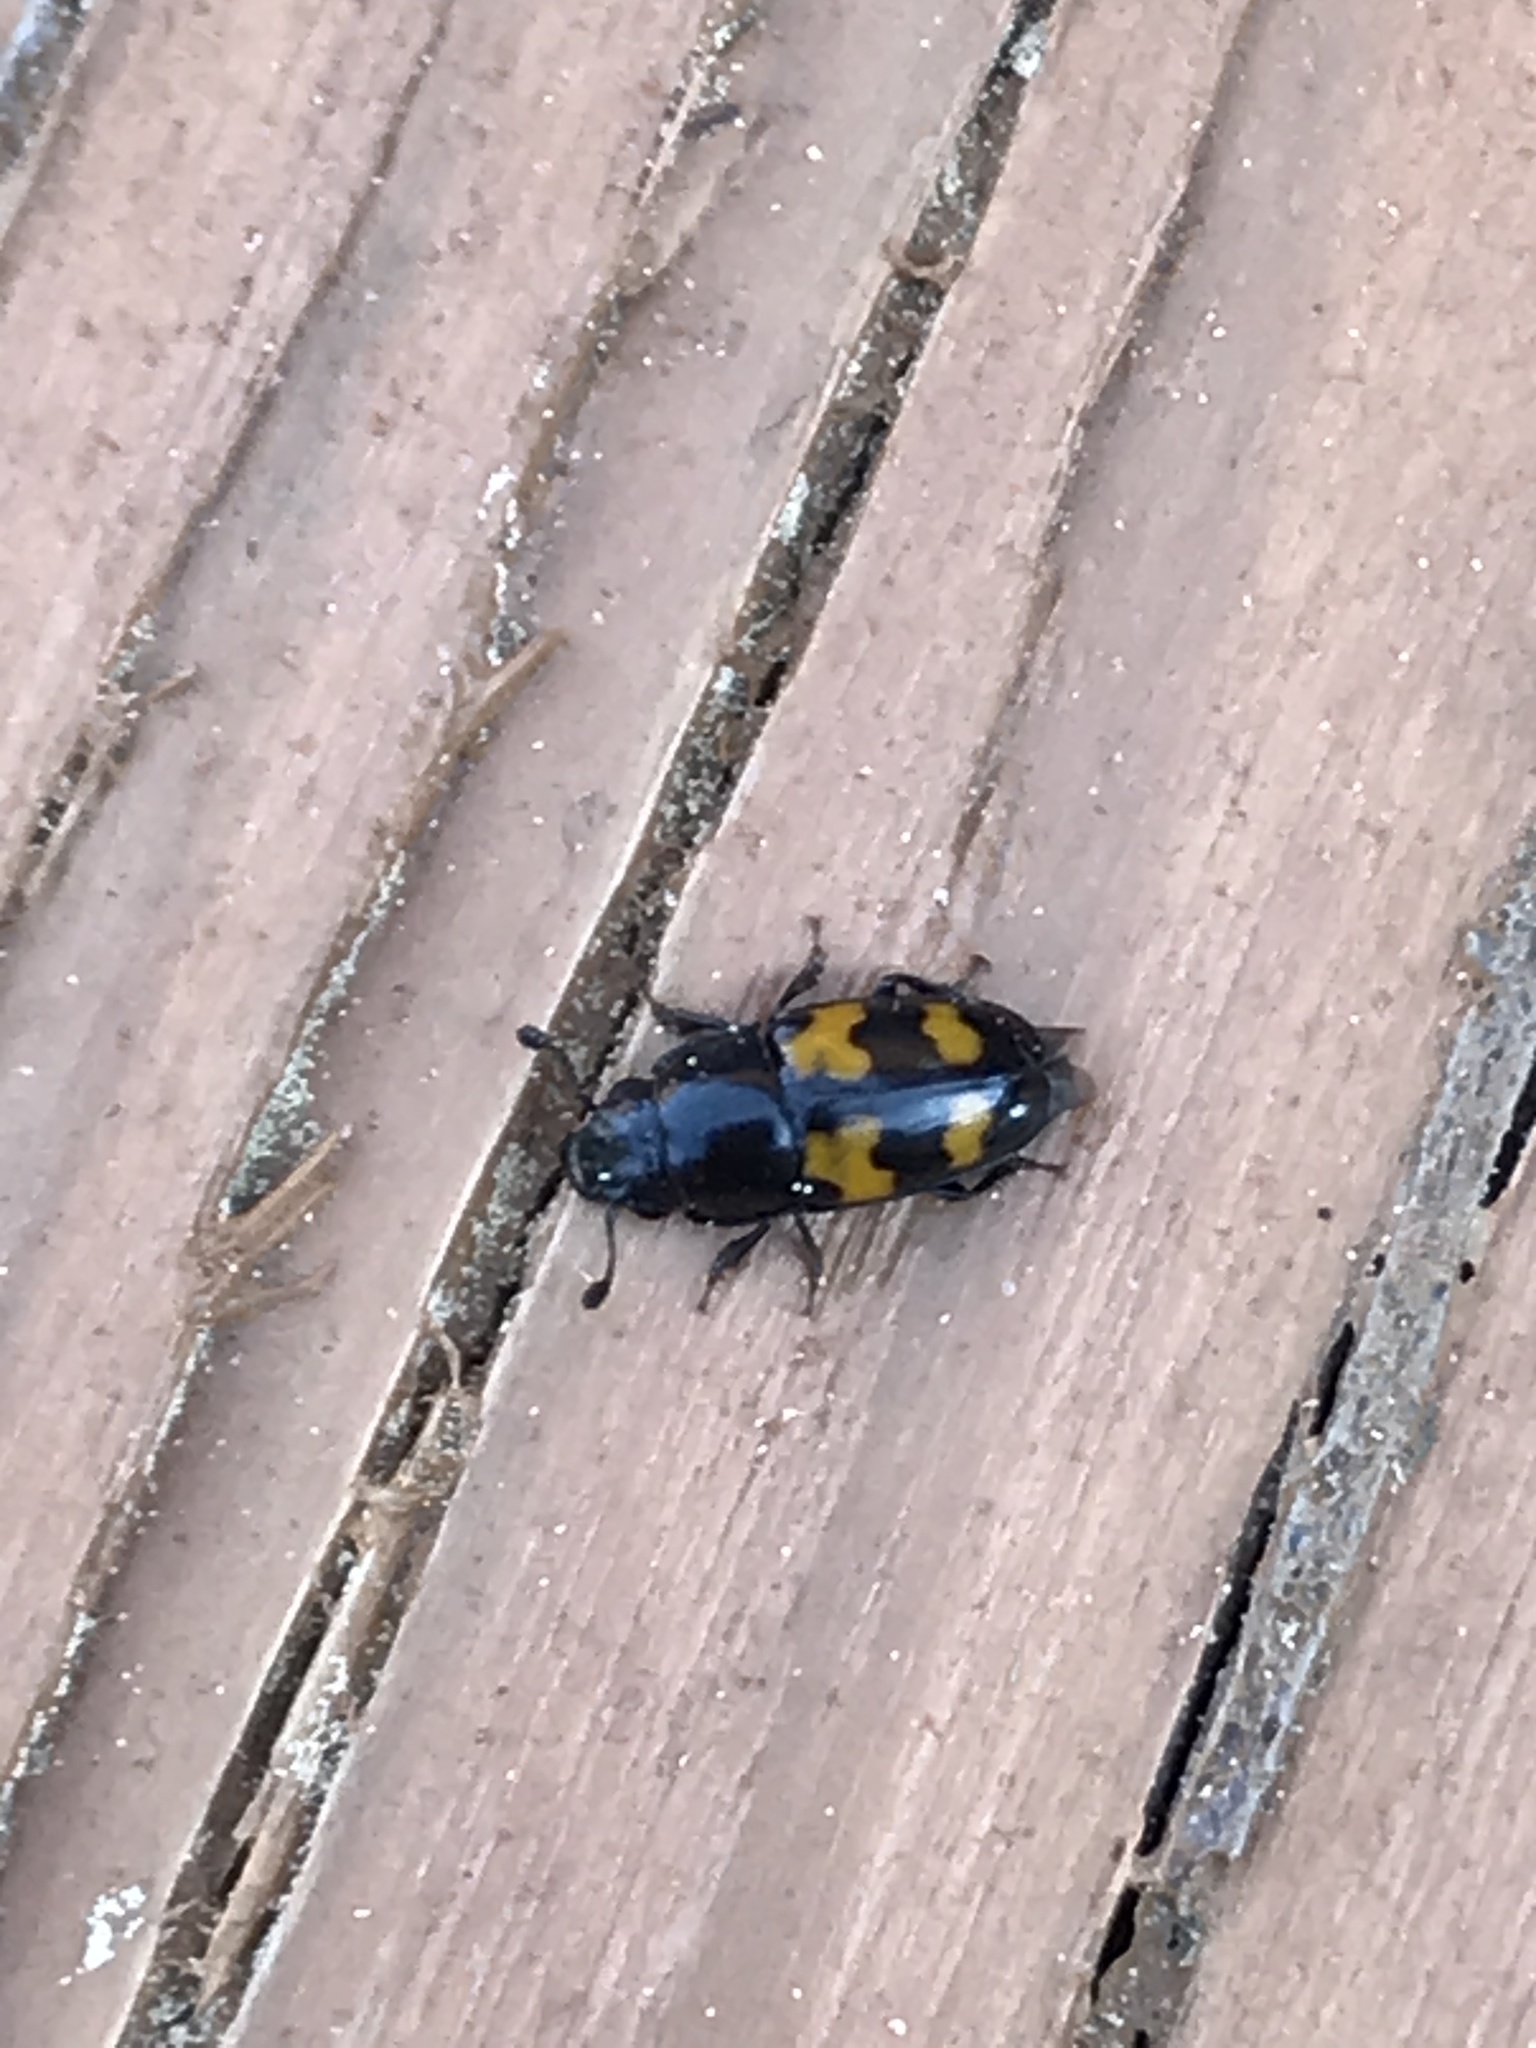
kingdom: Animalia
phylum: Arthropoda
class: Insecta
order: Coleoptera
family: Nitidulidae
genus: Glischrochilus
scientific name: Glischrochilus fasciatus
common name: Picnic beetle
